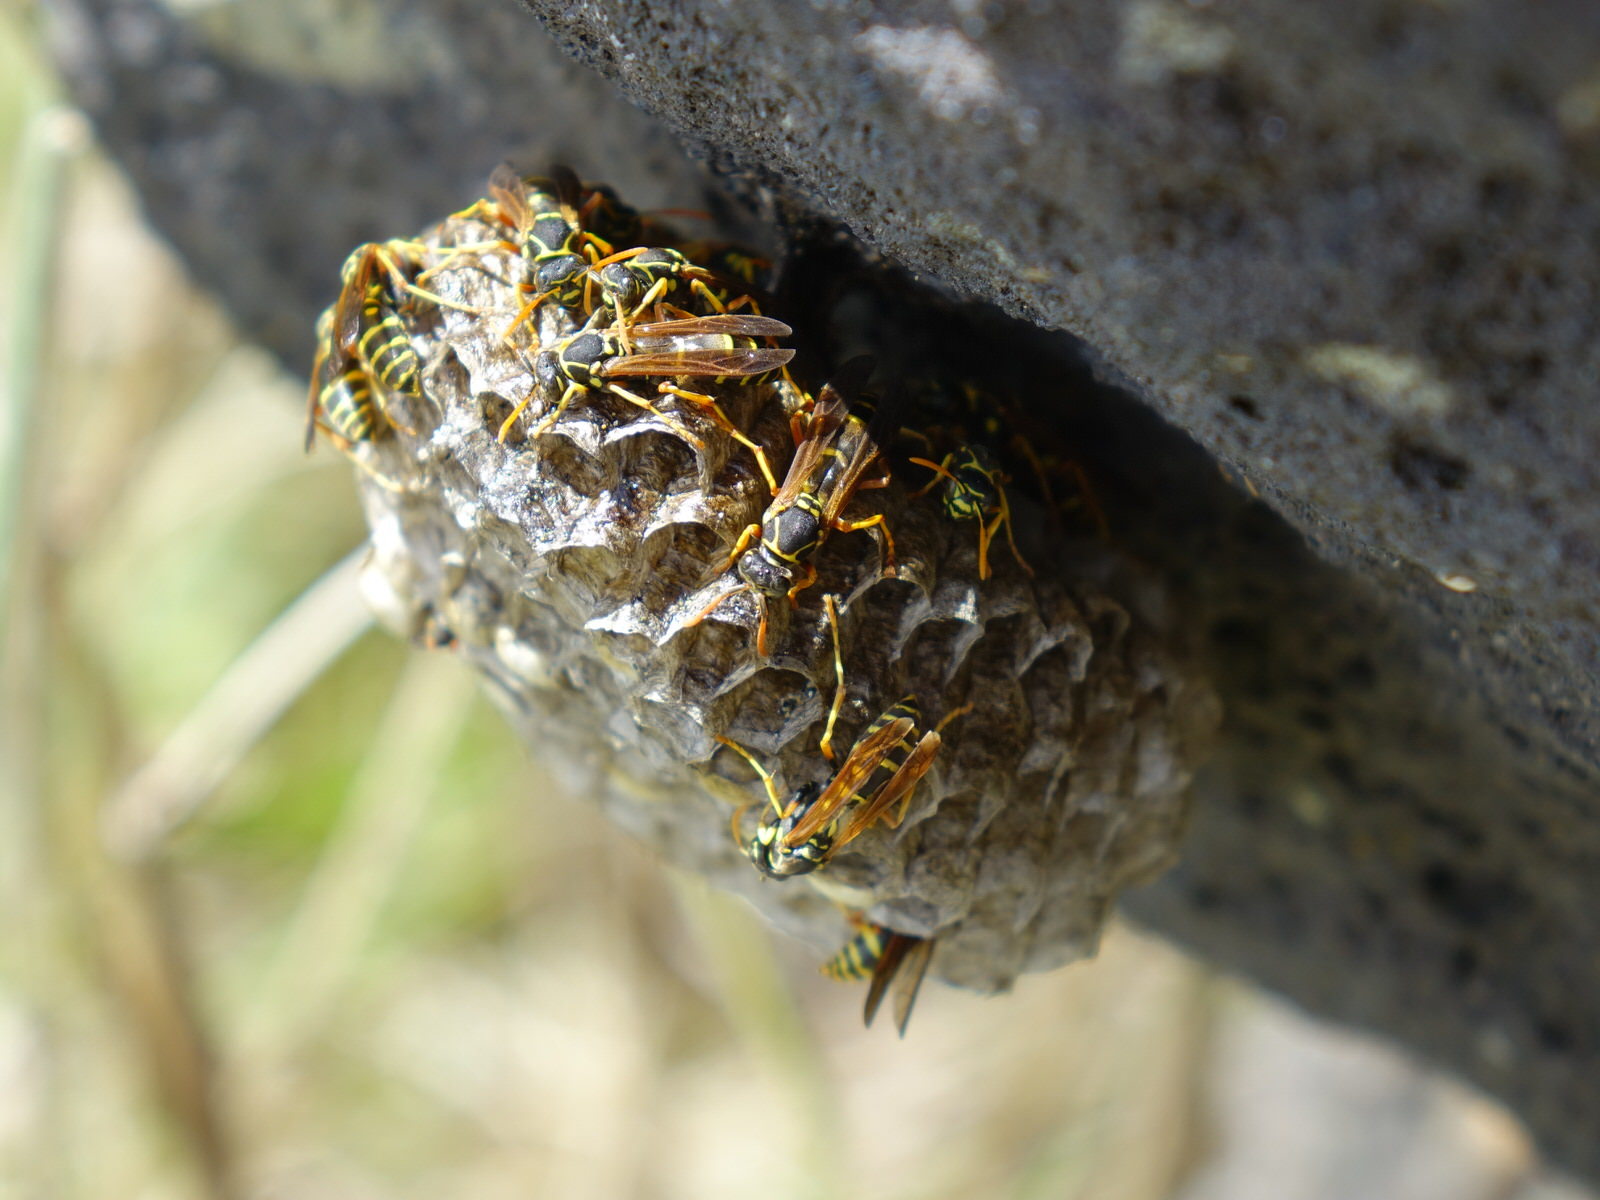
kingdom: Animalia
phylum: Arthropoda
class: Insecta
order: Hymenoptera
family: Eumenidae
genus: Polistes
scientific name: Polistes chinensis
